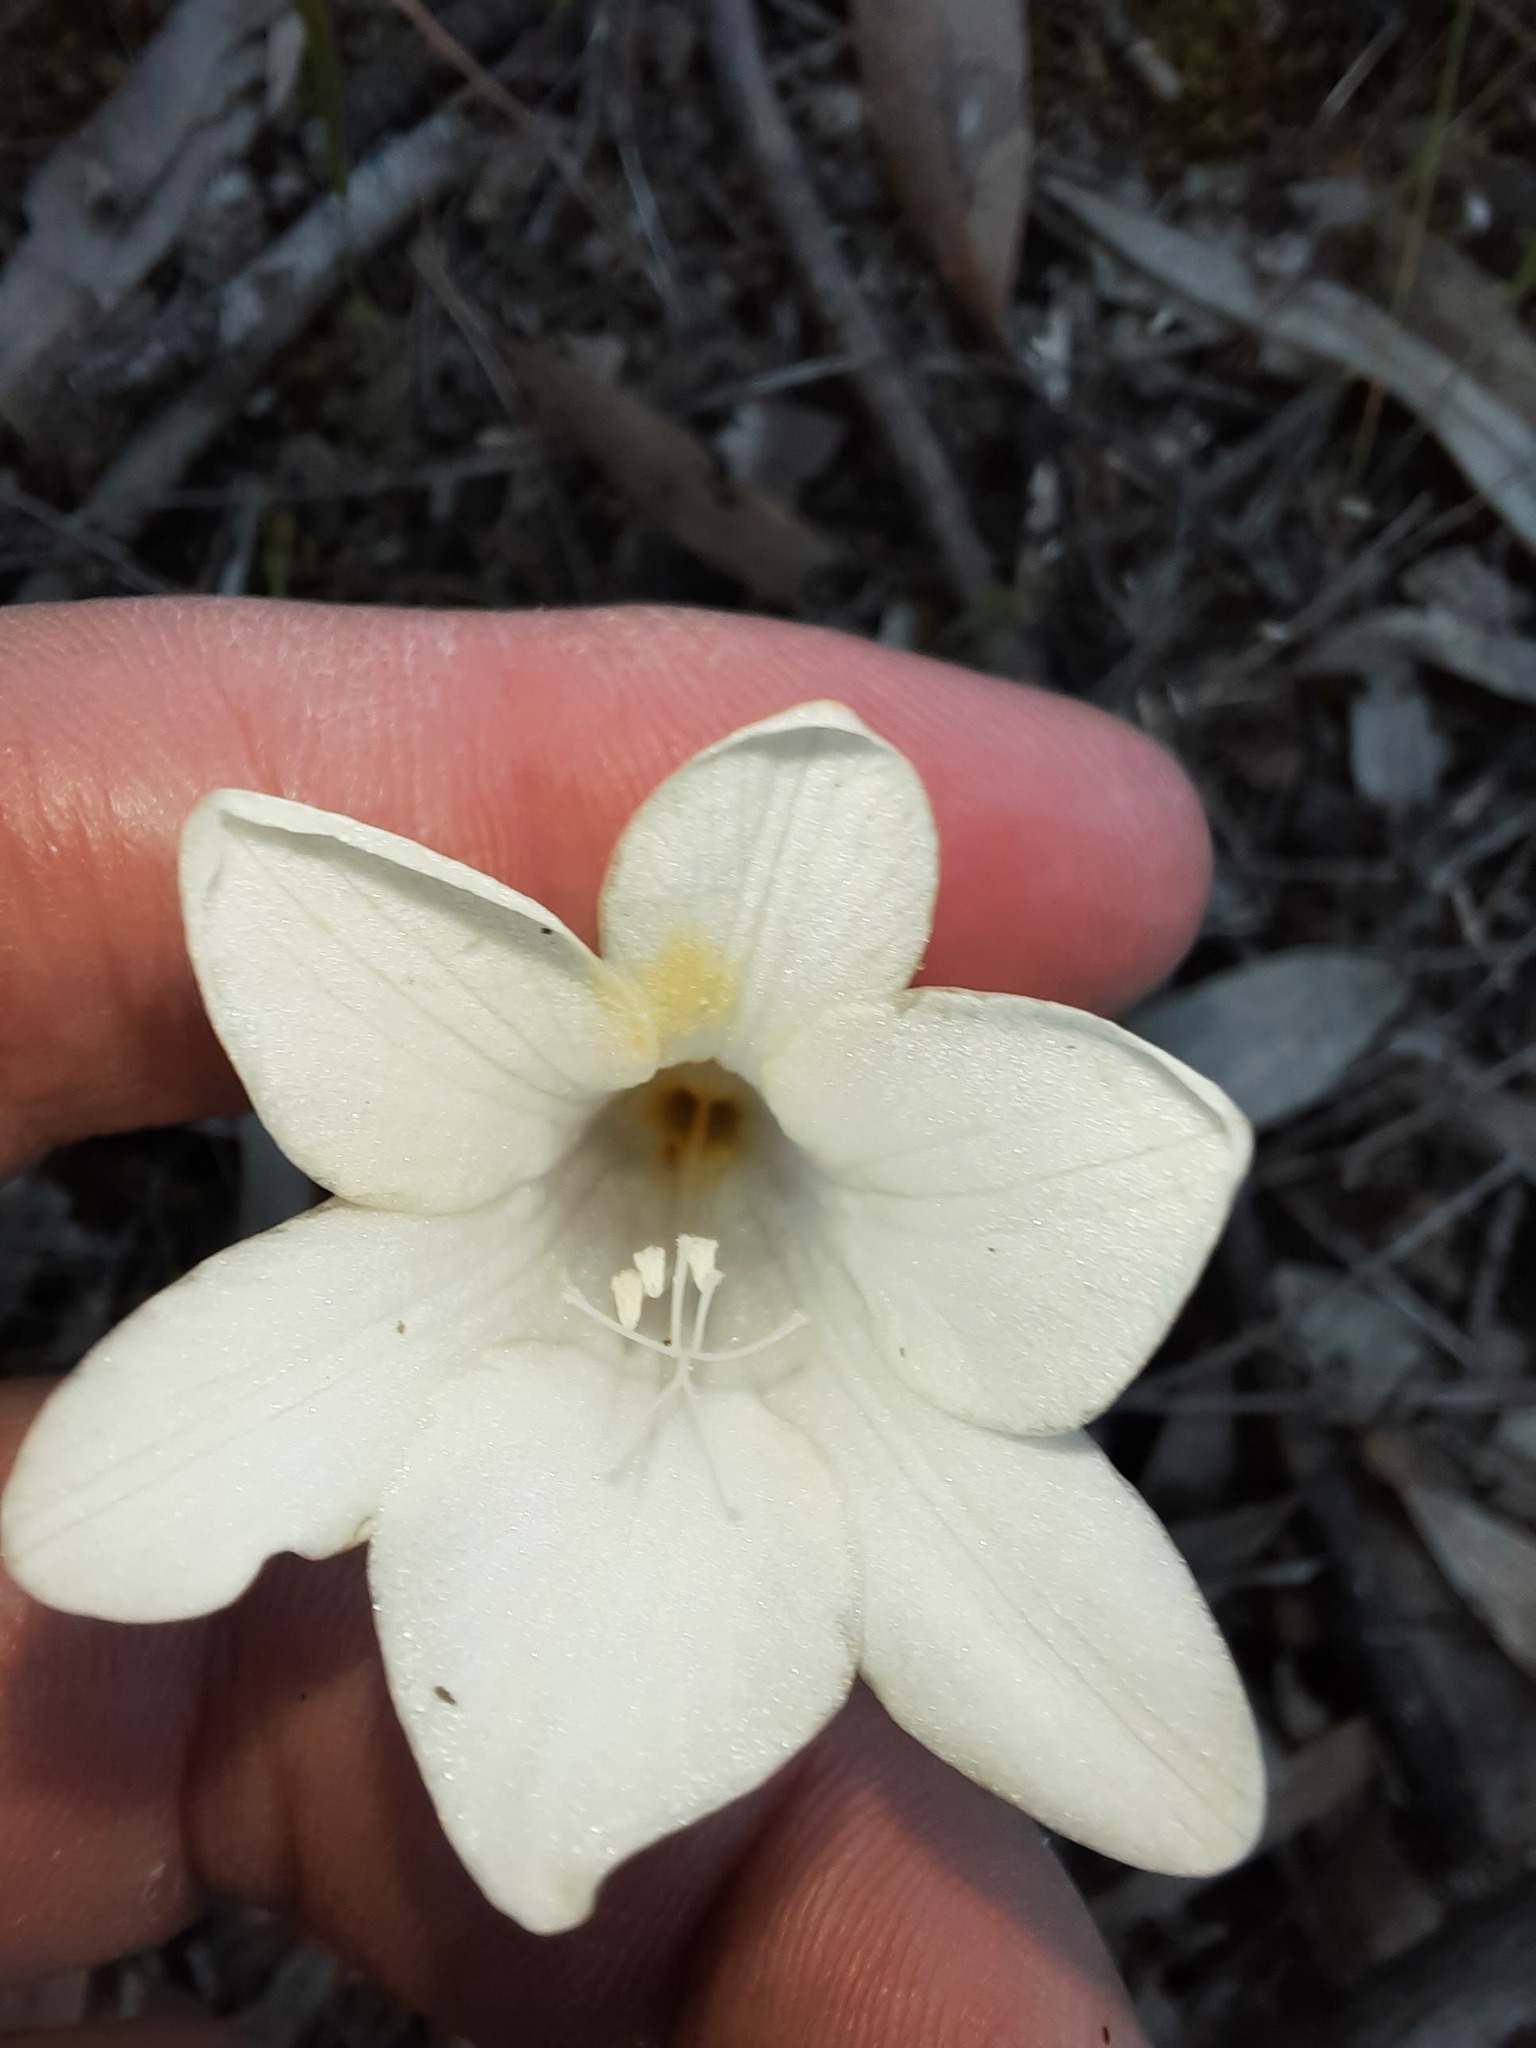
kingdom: Plantae
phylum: Tracheophyta
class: Liliopsida
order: Asparagales
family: Iridaceae
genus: Freesia
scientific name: Freesia leichtlinii
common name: Freesia
